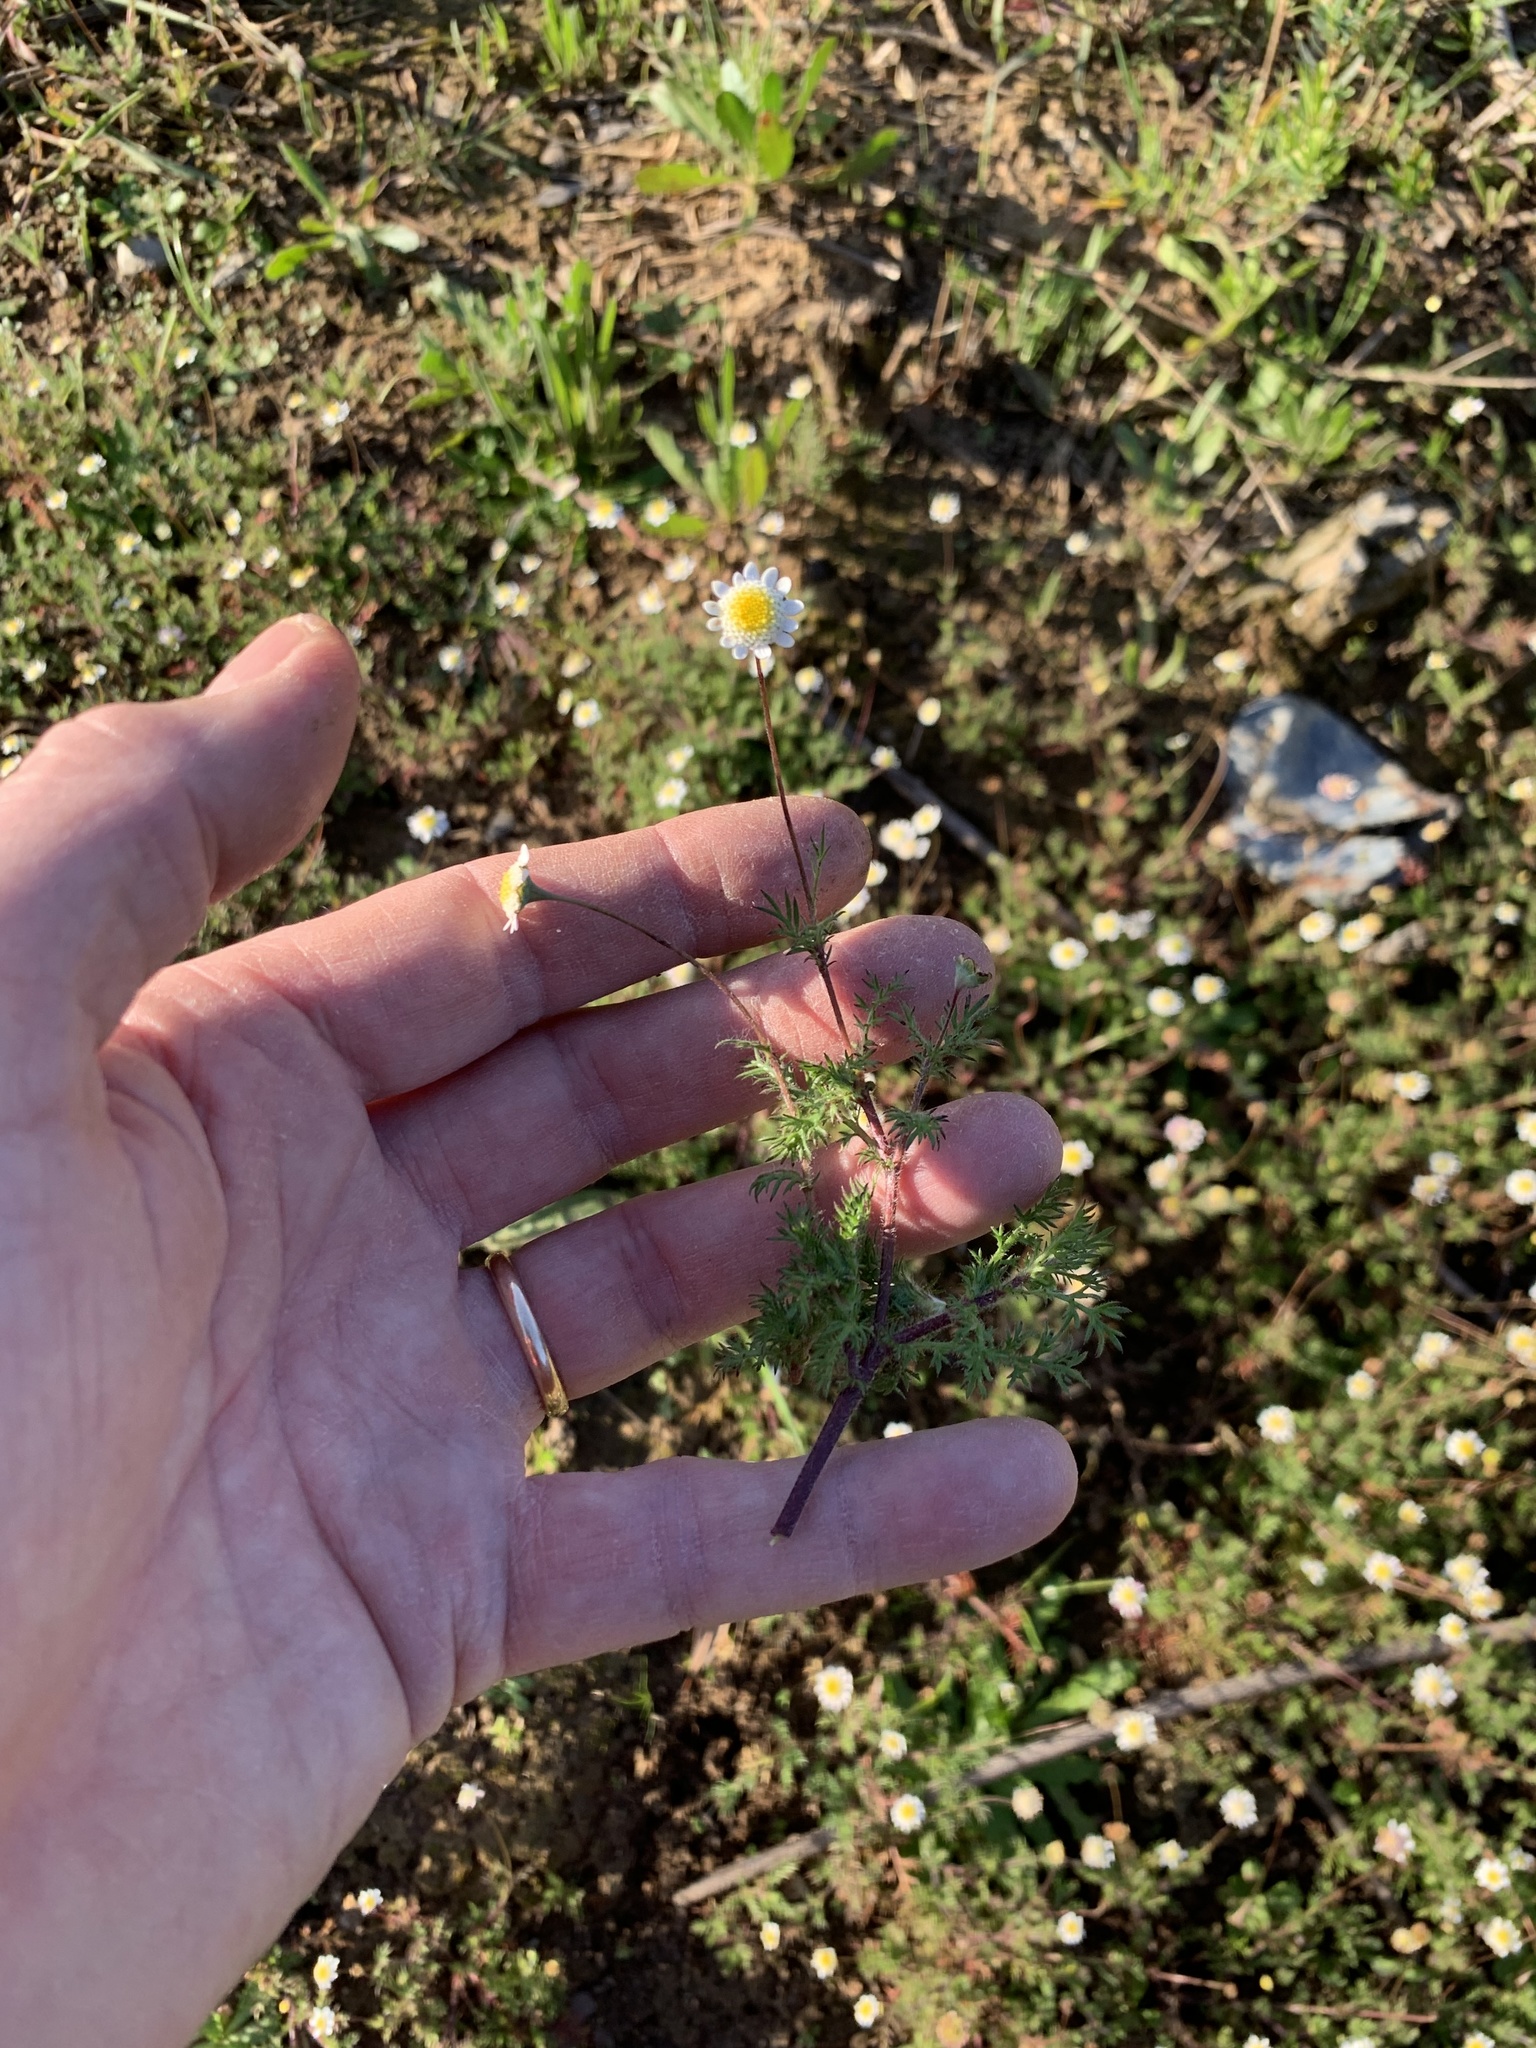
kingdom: Plantae
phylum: Tracheophyta
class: Magnoliopsida
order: Asterales
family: Asteraceae
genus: Cotula
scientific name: Cotula turbinata
